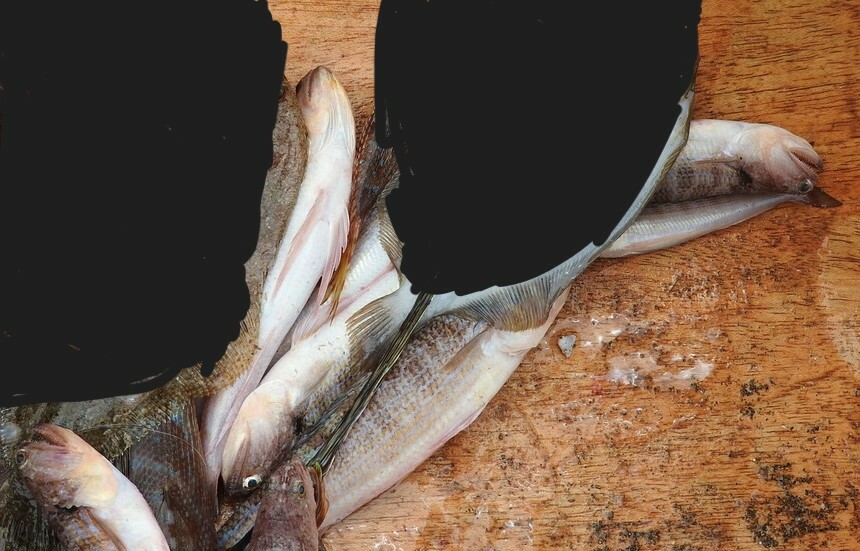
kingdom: Animalia
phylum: Chordata
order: Aulopiformes
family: Synodontidae
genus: Synodus
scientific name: Synodus myops
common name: Snakefish
